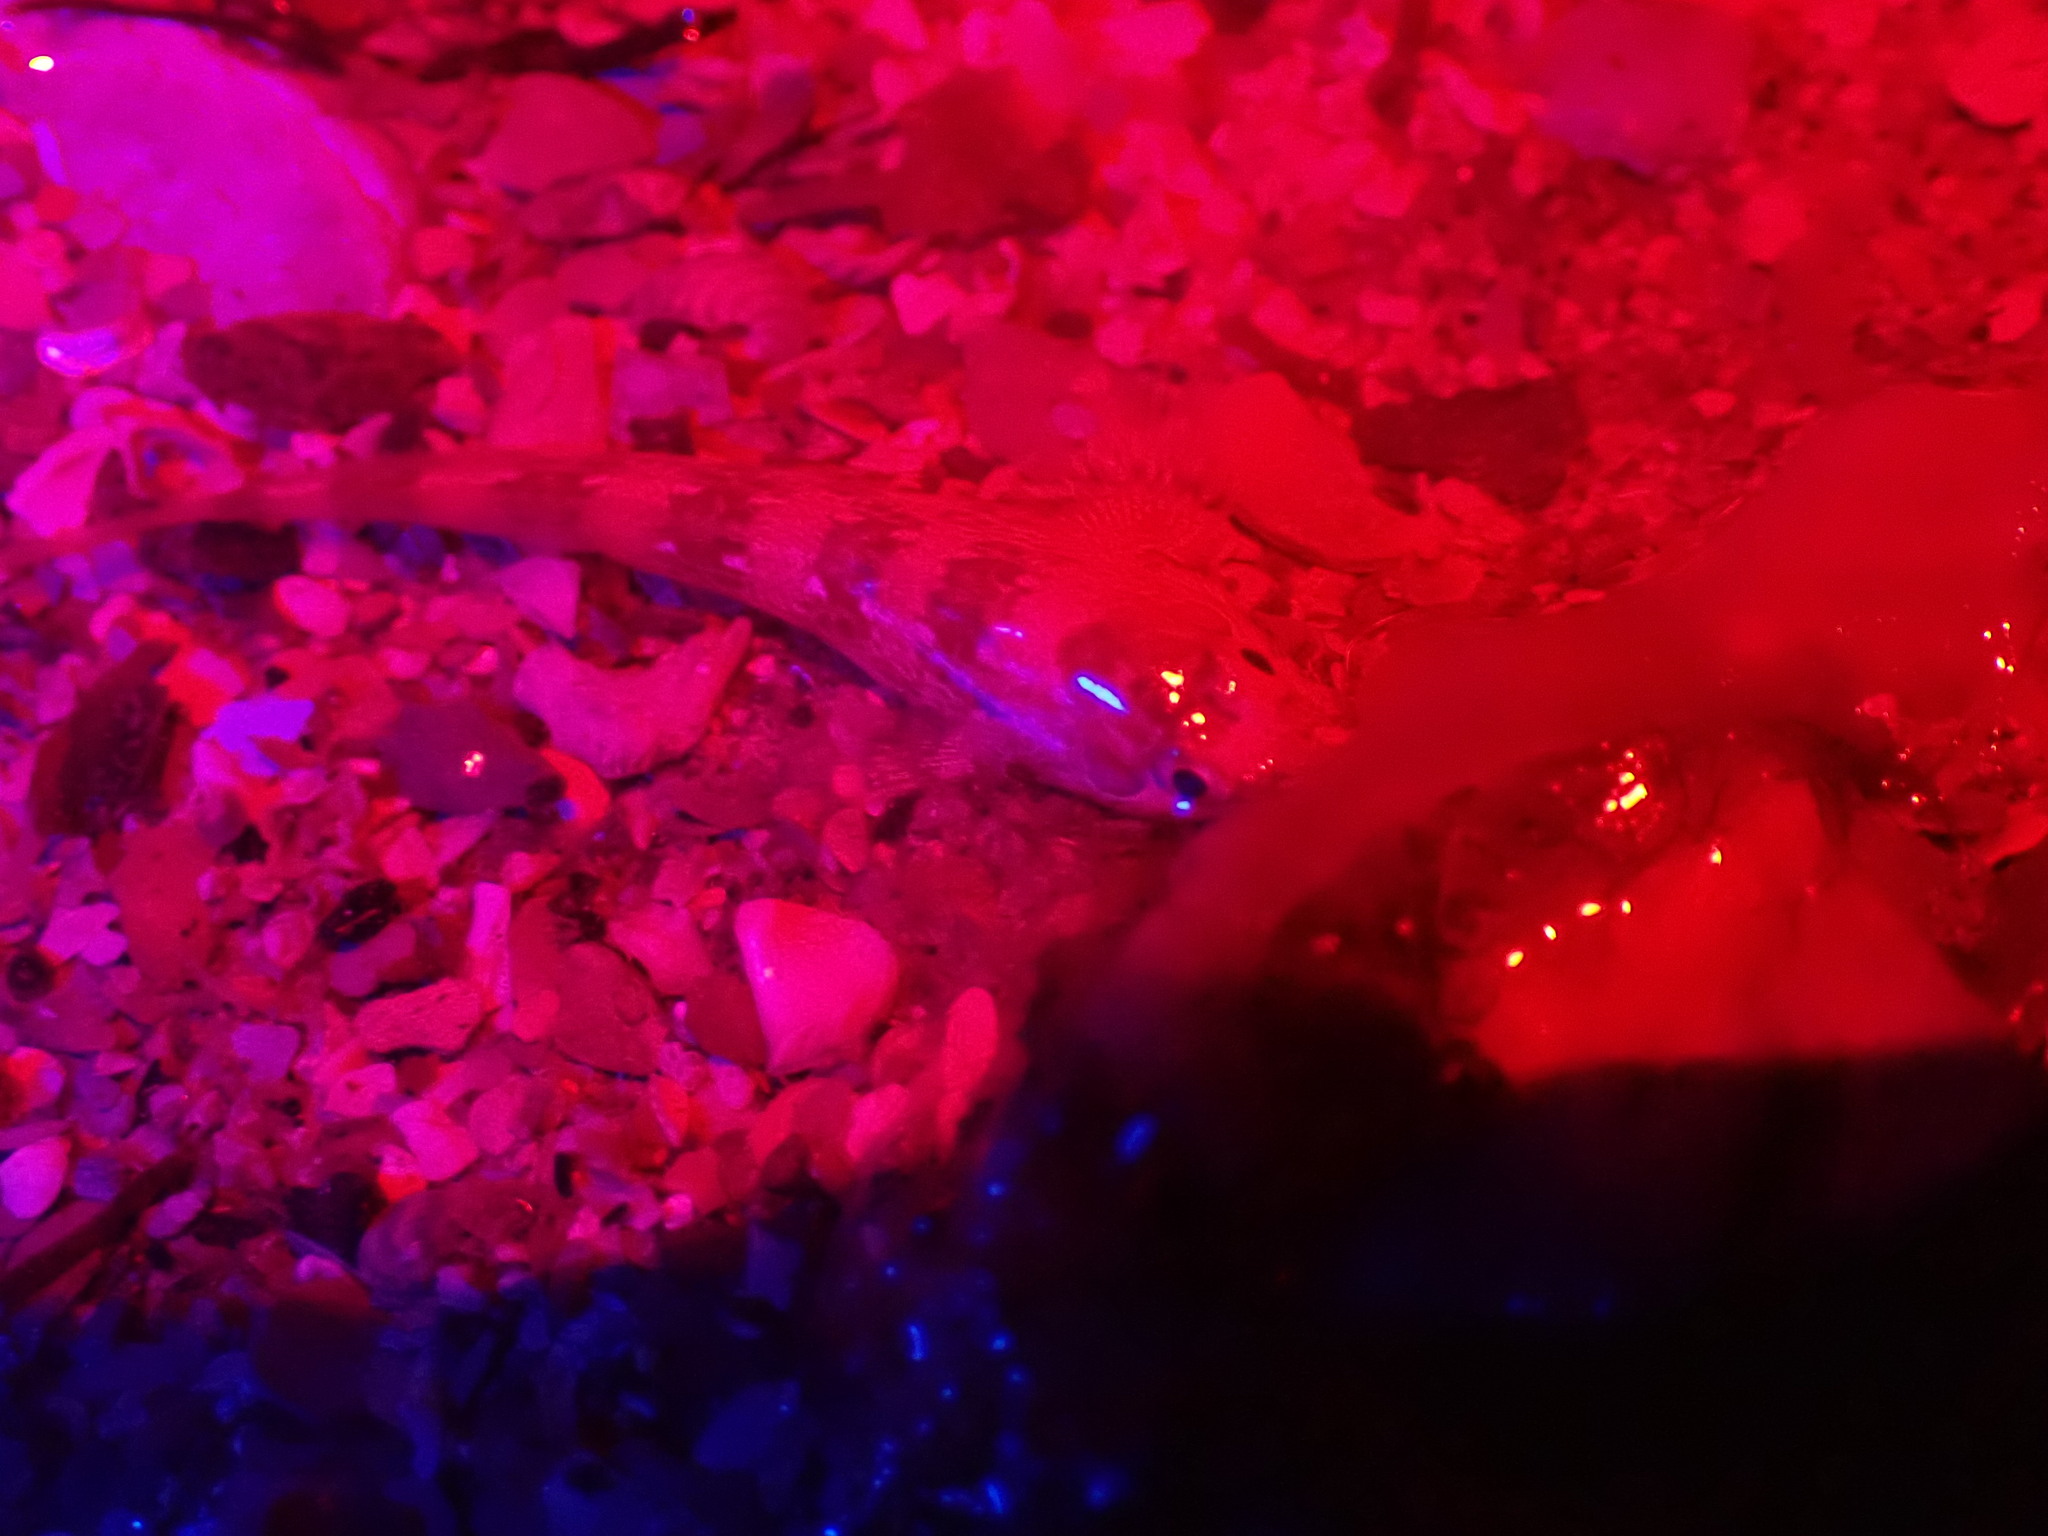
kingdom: Animalia
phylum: Chordata
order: Perciformes
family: Blenniidae
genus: Lipophrys
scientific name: Lipophrys pholis
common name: Shanny
